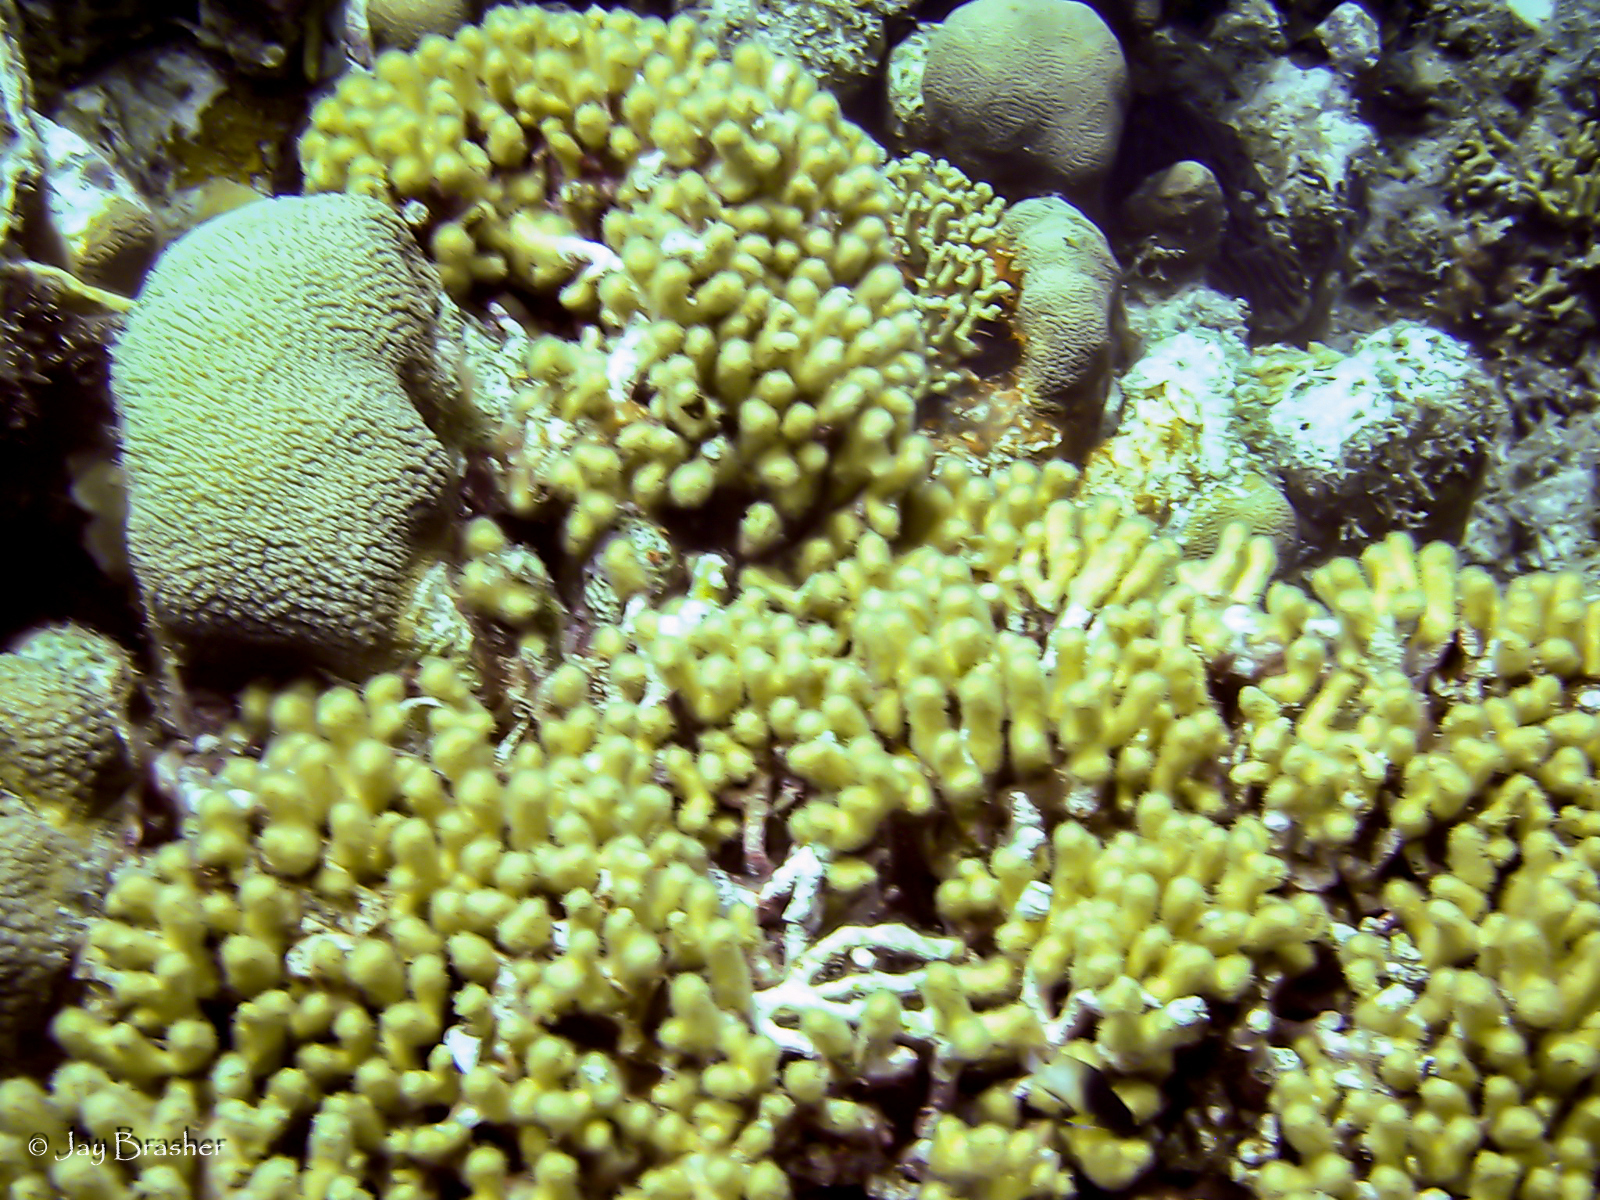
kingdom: Animalia
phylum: Cnidaria
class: Anthozoa
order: Scleractinia
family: Pocilloporidae
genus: Madracis
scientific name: Madracis auretenra
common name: Yellow pencil coral
